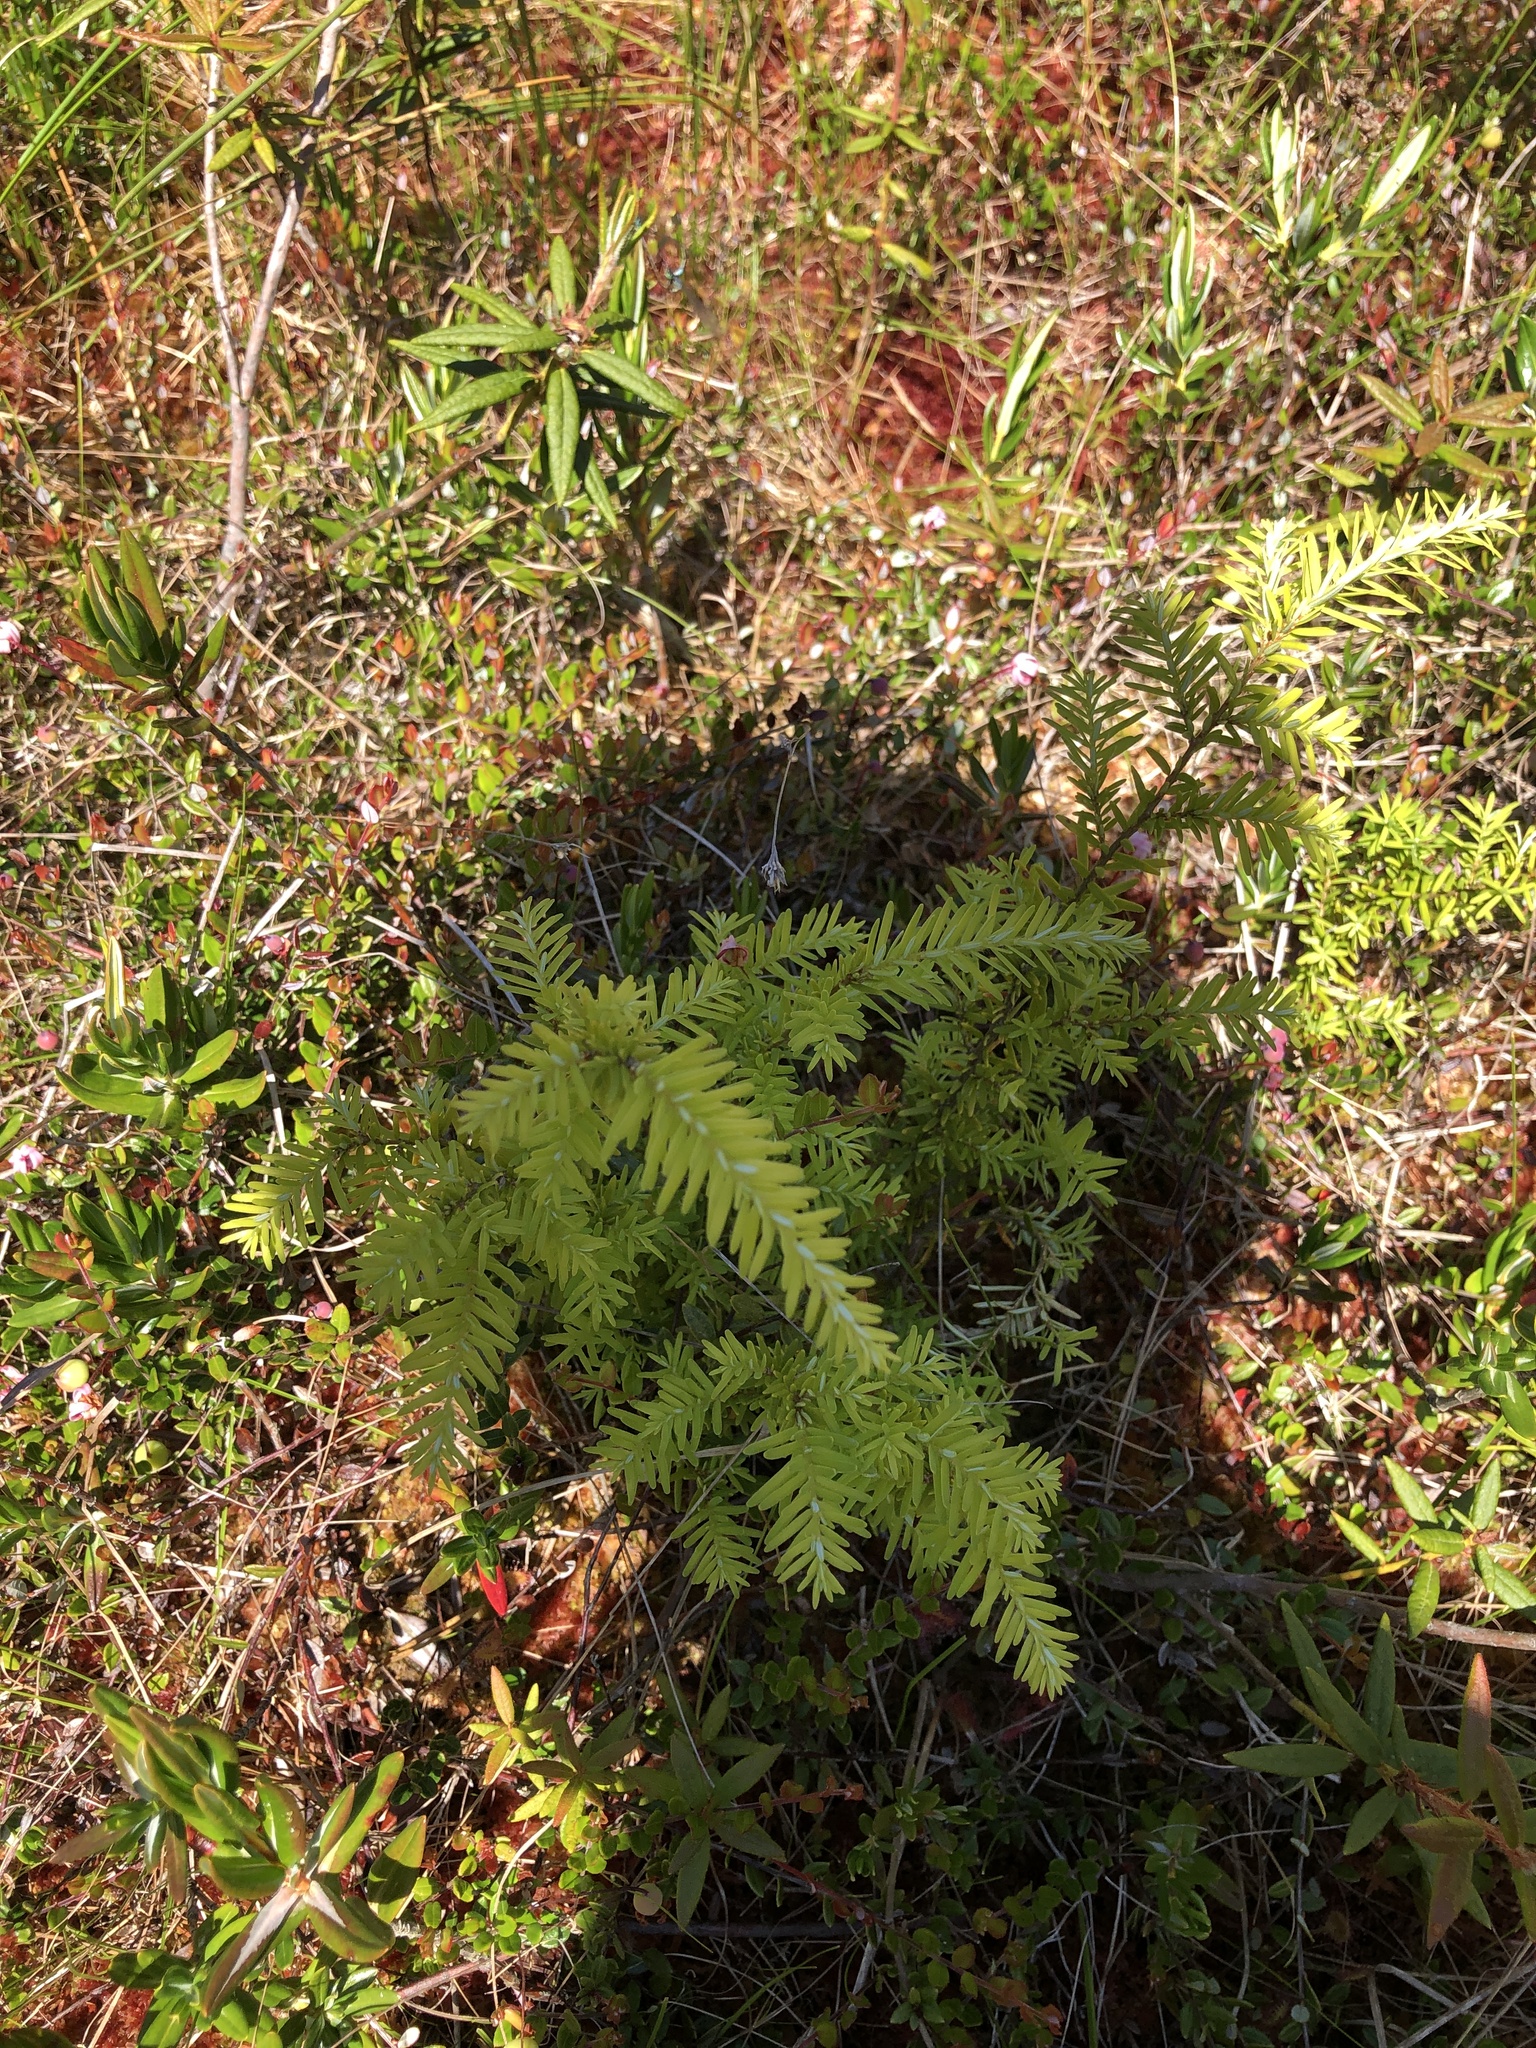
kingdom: Plantae
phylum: Tracheophyta
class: Pinopsida
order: Pinales
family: Pinaceae
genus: Tsuga
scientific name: Tsuga heterophylla
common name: Western hemlock
